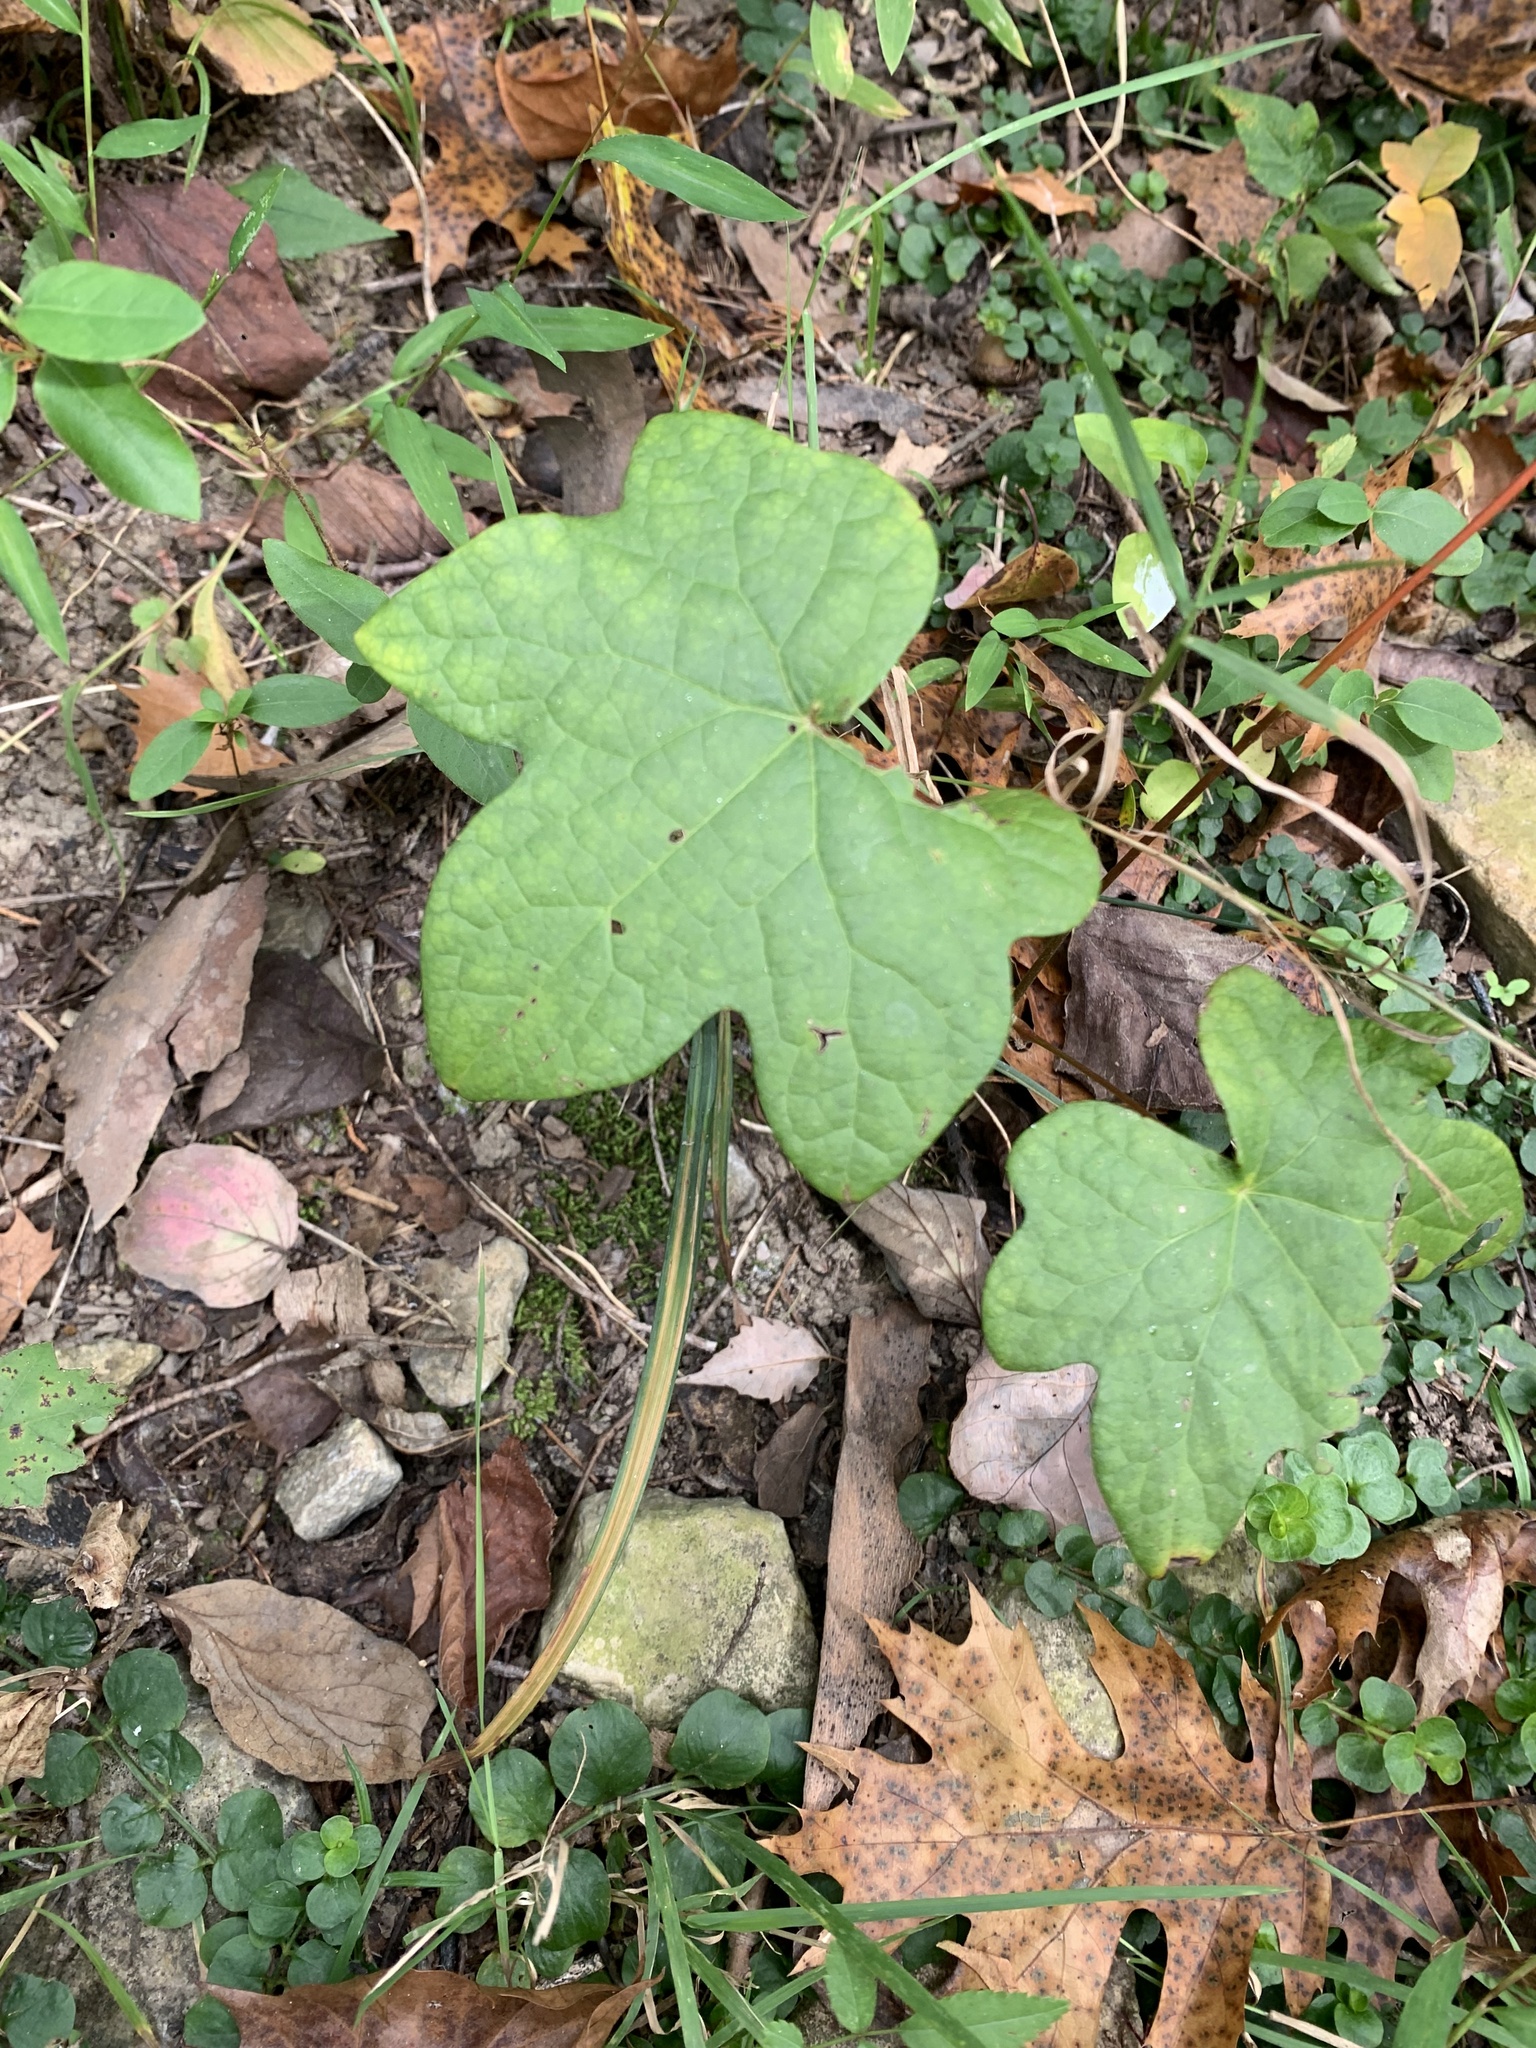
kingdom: Plantae
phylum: Tracheophyta
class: Magnoliopsida
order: Ranunculales
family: Menispermaceae
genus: Menispermum
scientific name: Menispermum canadense
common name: Moonseed
